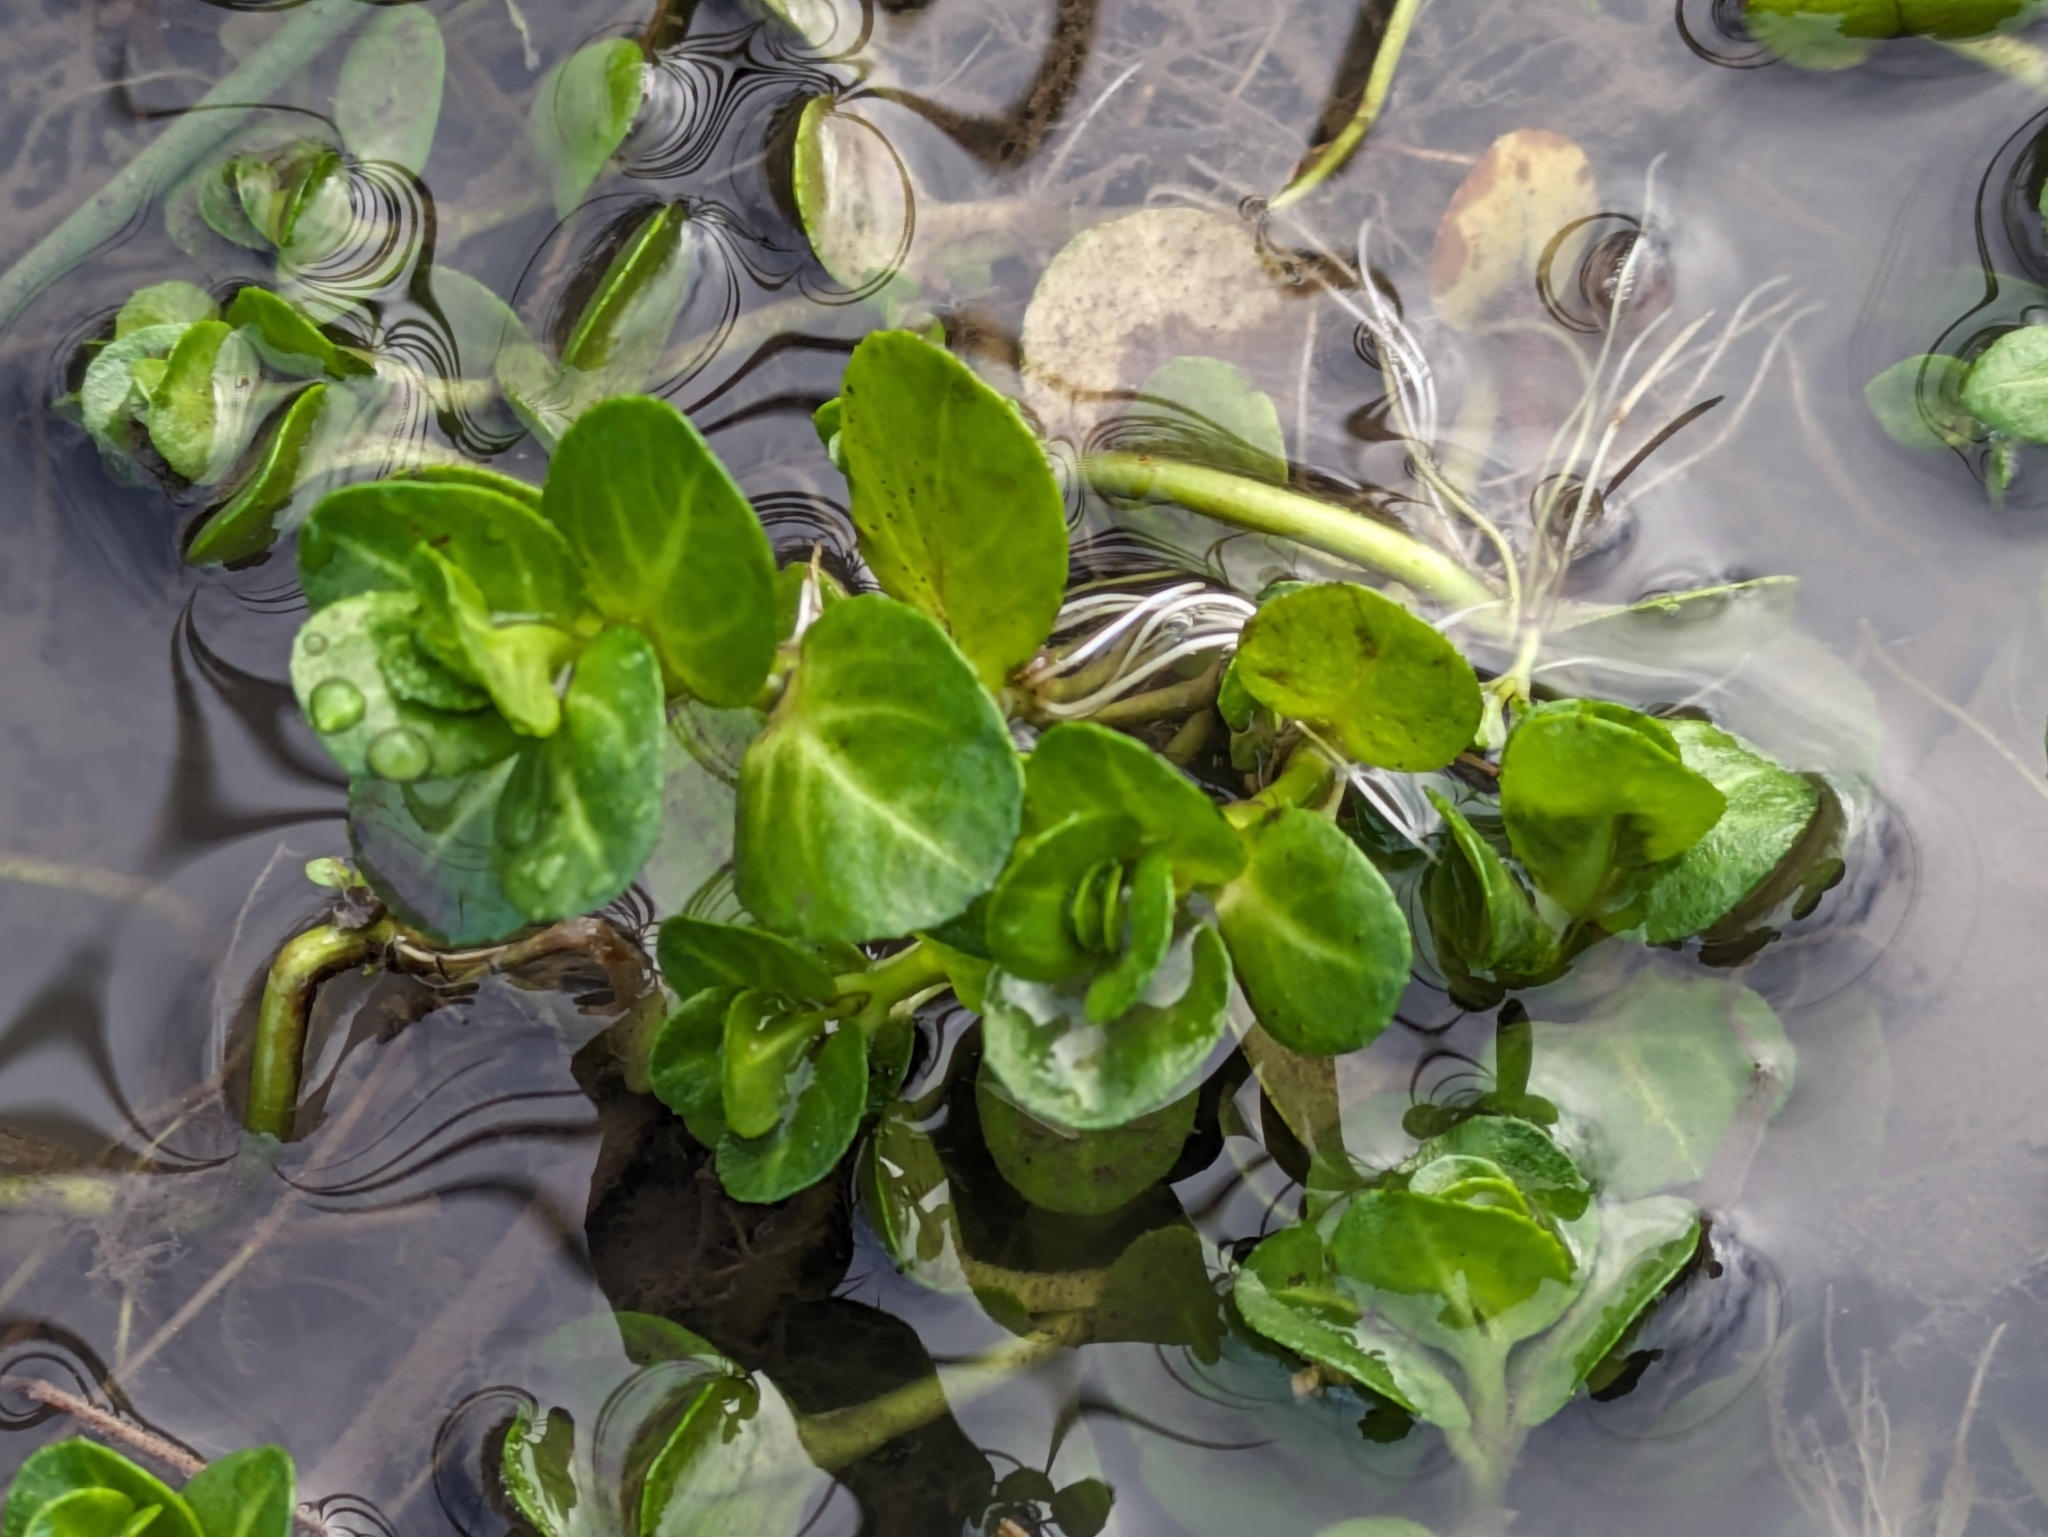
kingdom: Plantae
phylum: Tracheophyta
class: Magnoliopsida
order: Lamiales
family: Plantaginaceae
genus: Veronica
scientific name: Veronica beccabunga
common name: Brooklime
